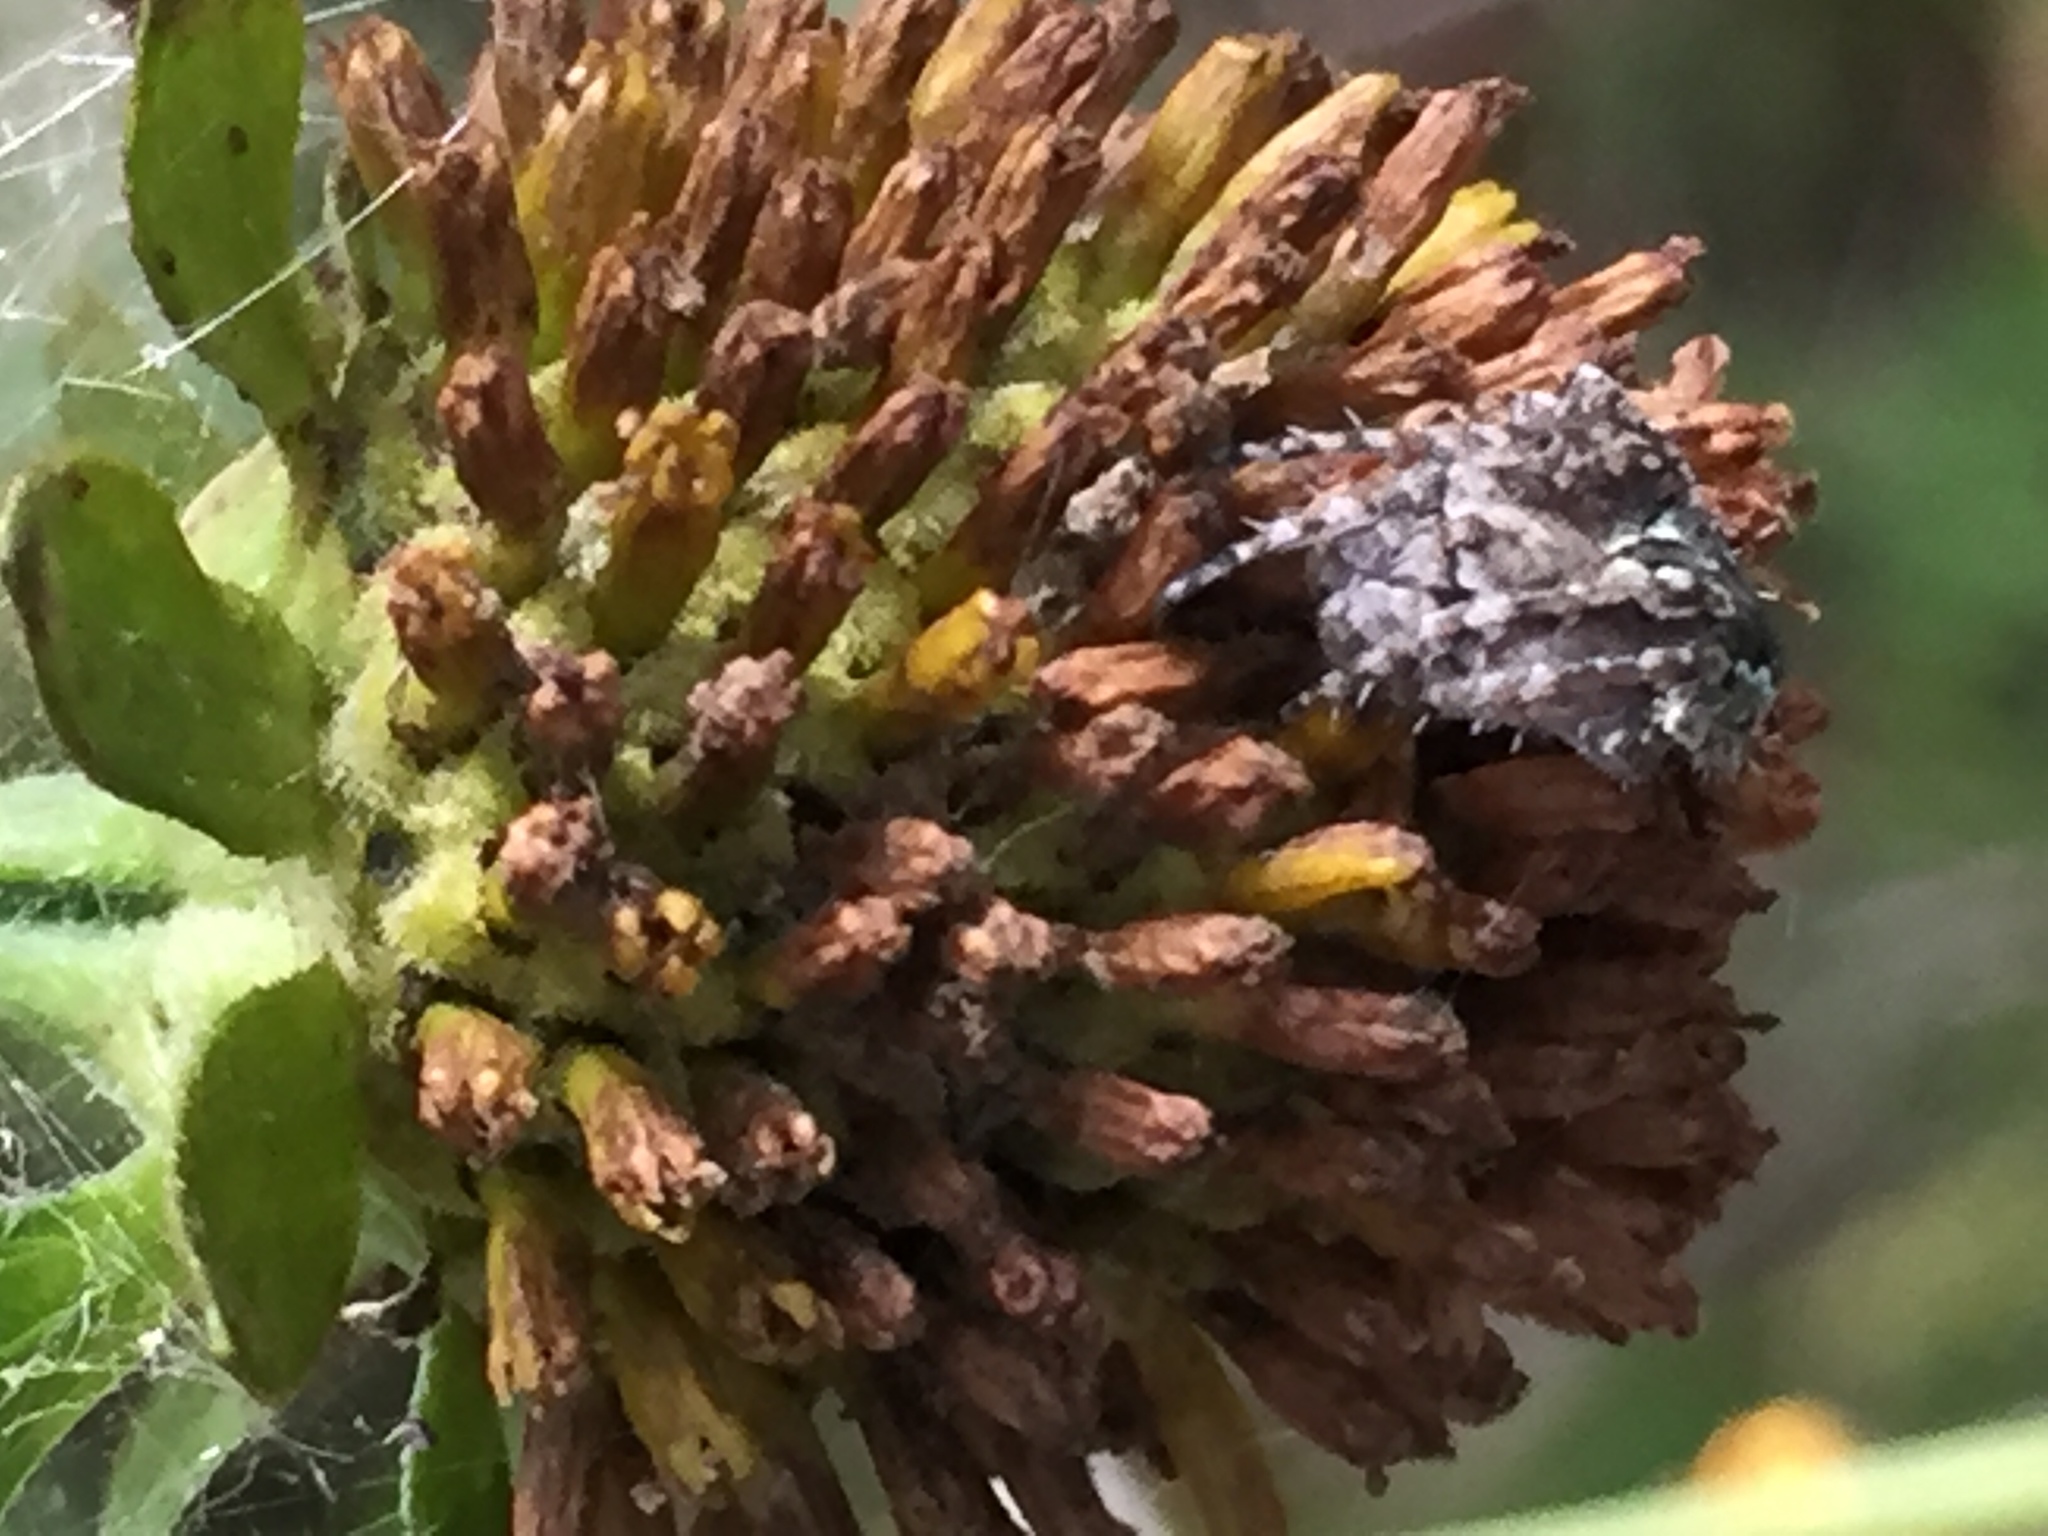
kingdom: Plantae
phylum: Tracheophyta
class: Magnoliopsida
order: Asterales
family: Asteraceae
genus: Rudbeckia
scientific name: Rudbeckia laciniata
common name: Coneflower
